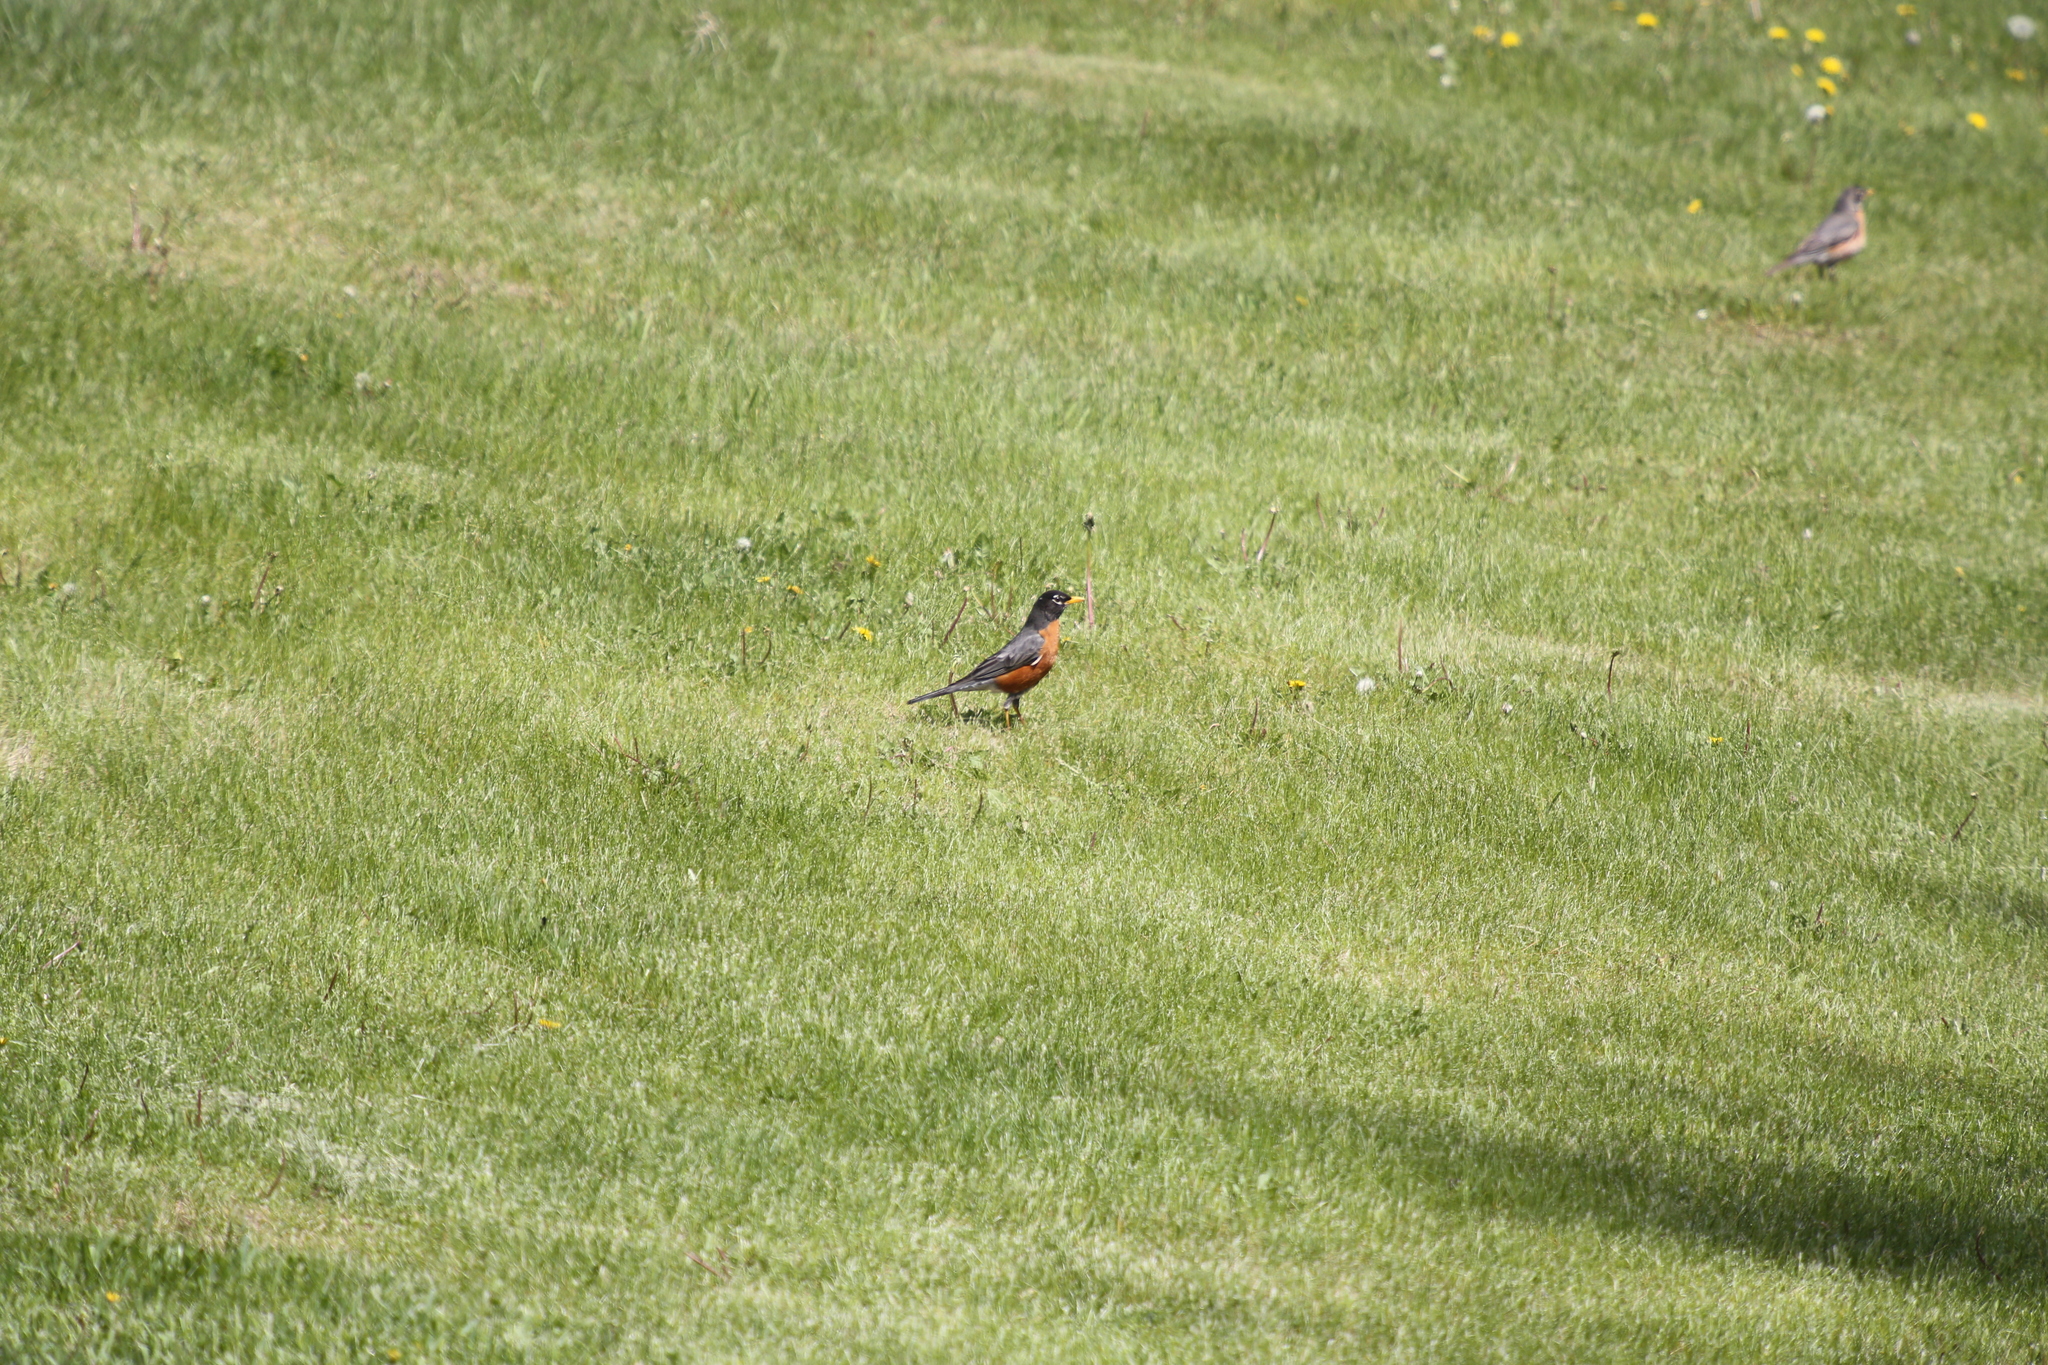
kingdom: Animalia
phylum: Chordata
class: Aves
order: Passeriformes
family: Turdidae
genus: Turdus
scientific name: Turdus migratorius
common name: American robin
